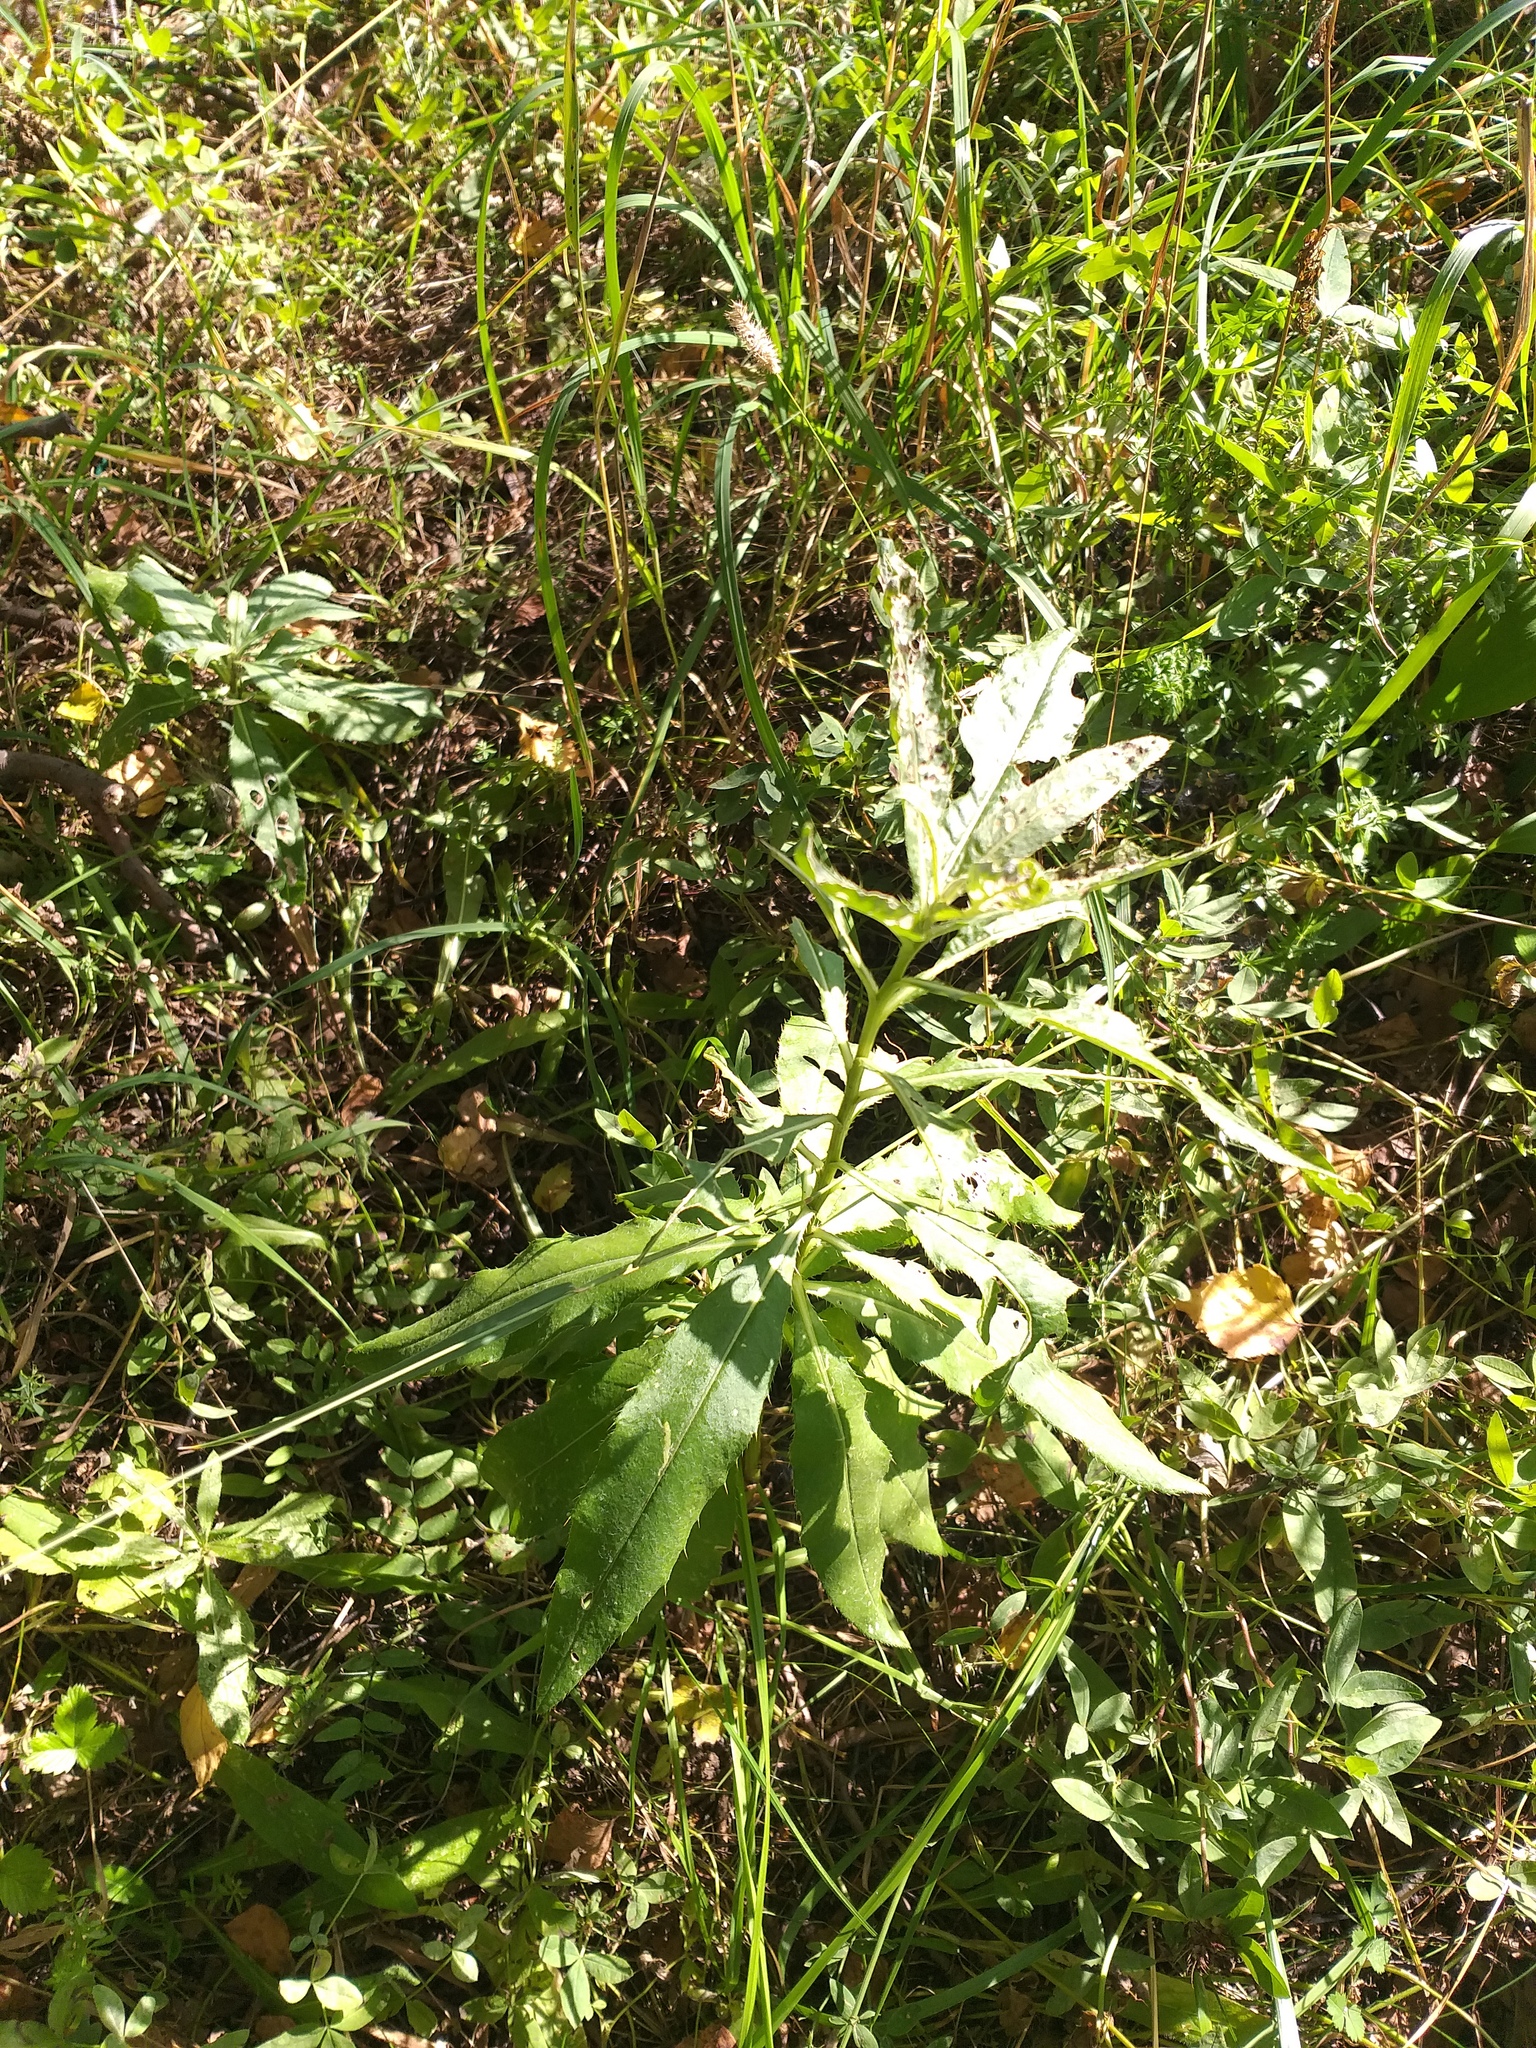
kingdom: Plantae
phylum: Tracheophyta
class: Magnoliopsida
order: Asterales
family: Asteraceae
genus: Cirsium
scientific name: Cirsium arvense
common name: Creeping thistle
